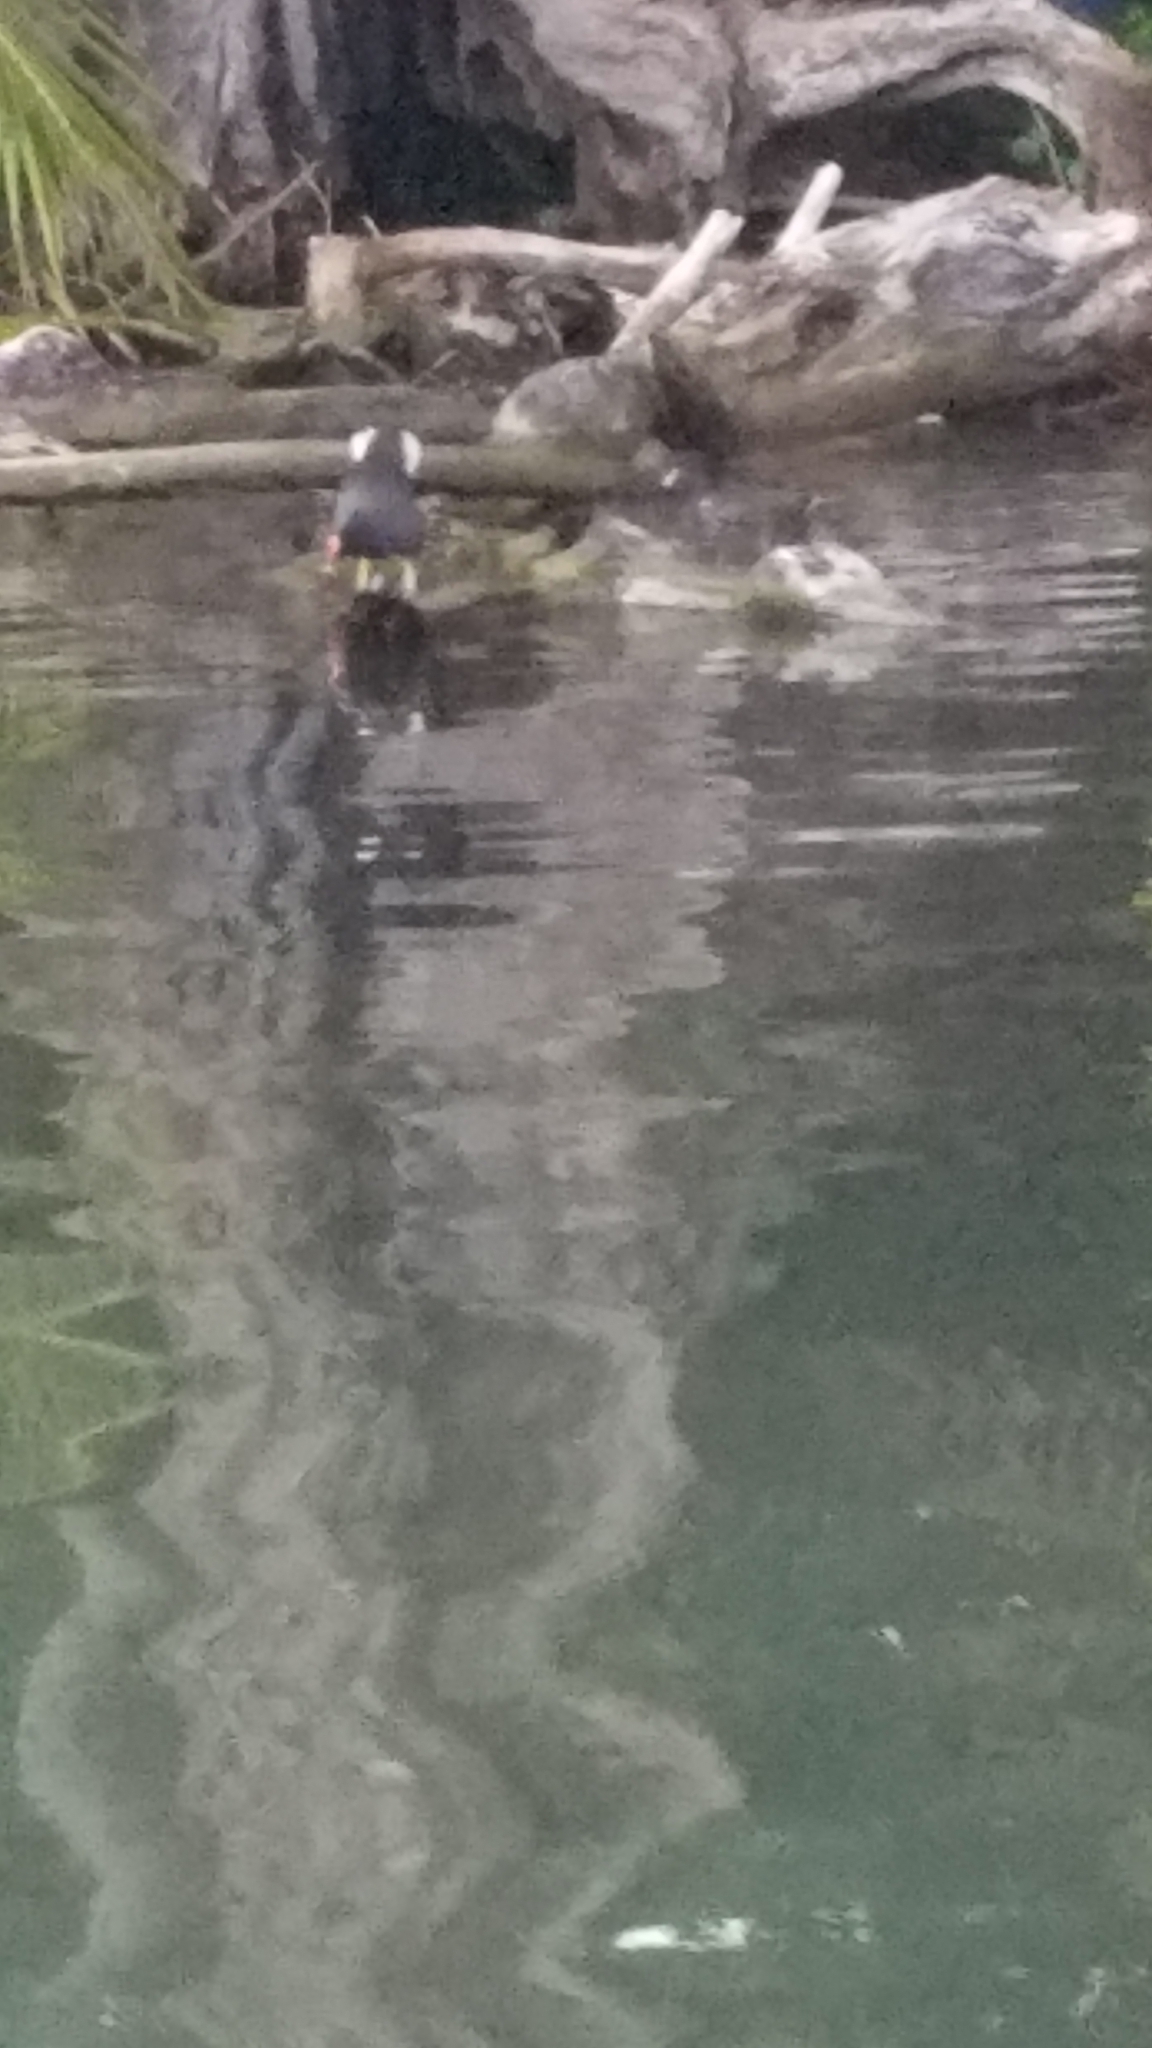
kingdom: Animalia
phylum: Chordata
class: Aves
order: Gruiformes
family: Rallidae
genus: Gallinula
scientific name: Gallinula chloropus
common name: Common moorhen
